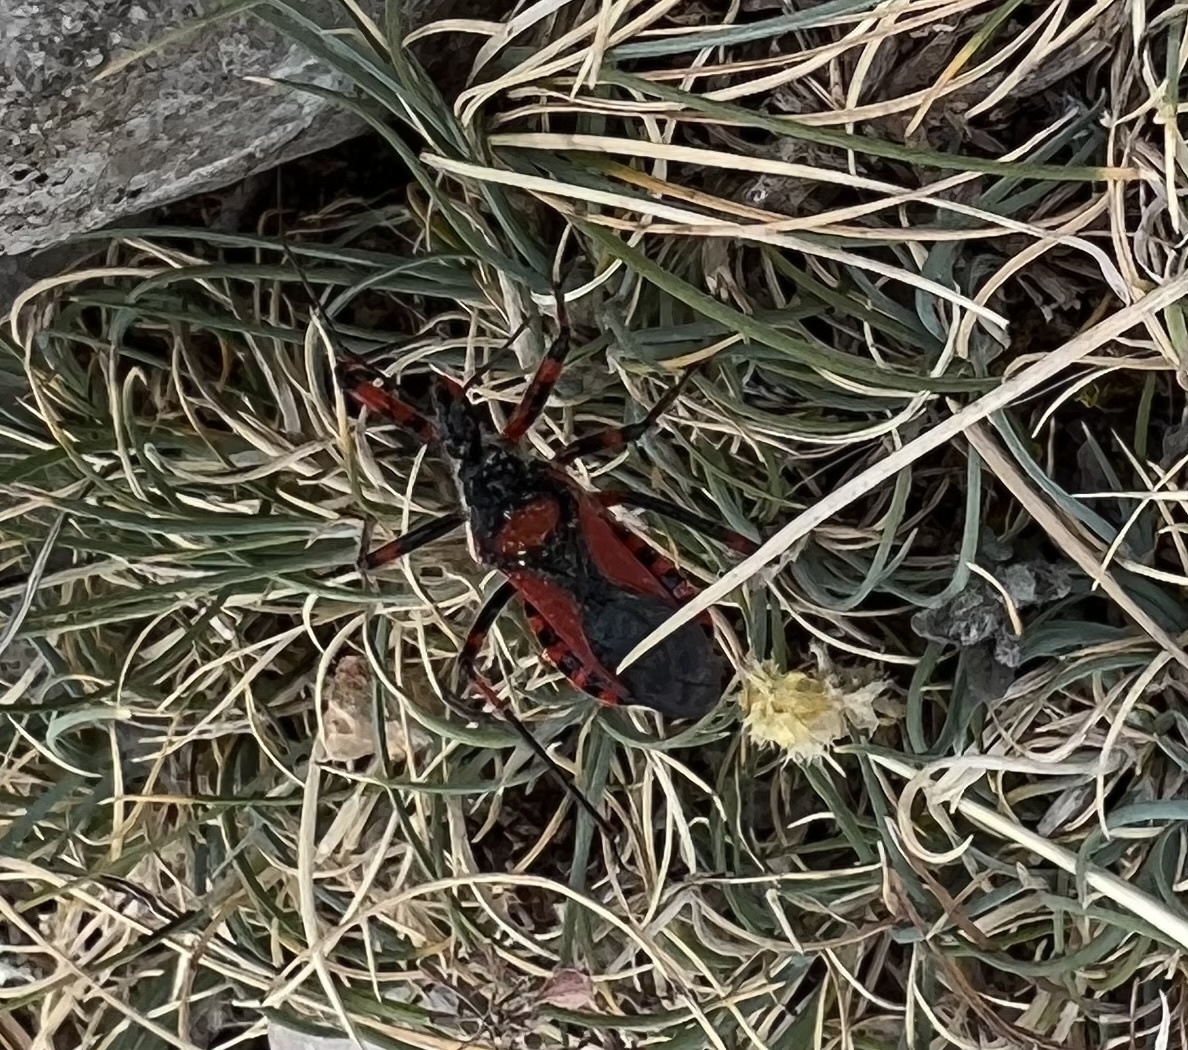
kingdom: Animalia
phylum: Arthropoda
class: Insecta
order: Hemiptera
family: Reduviidae
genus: Rhynocoris
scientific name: Rhynocoris iracundus
